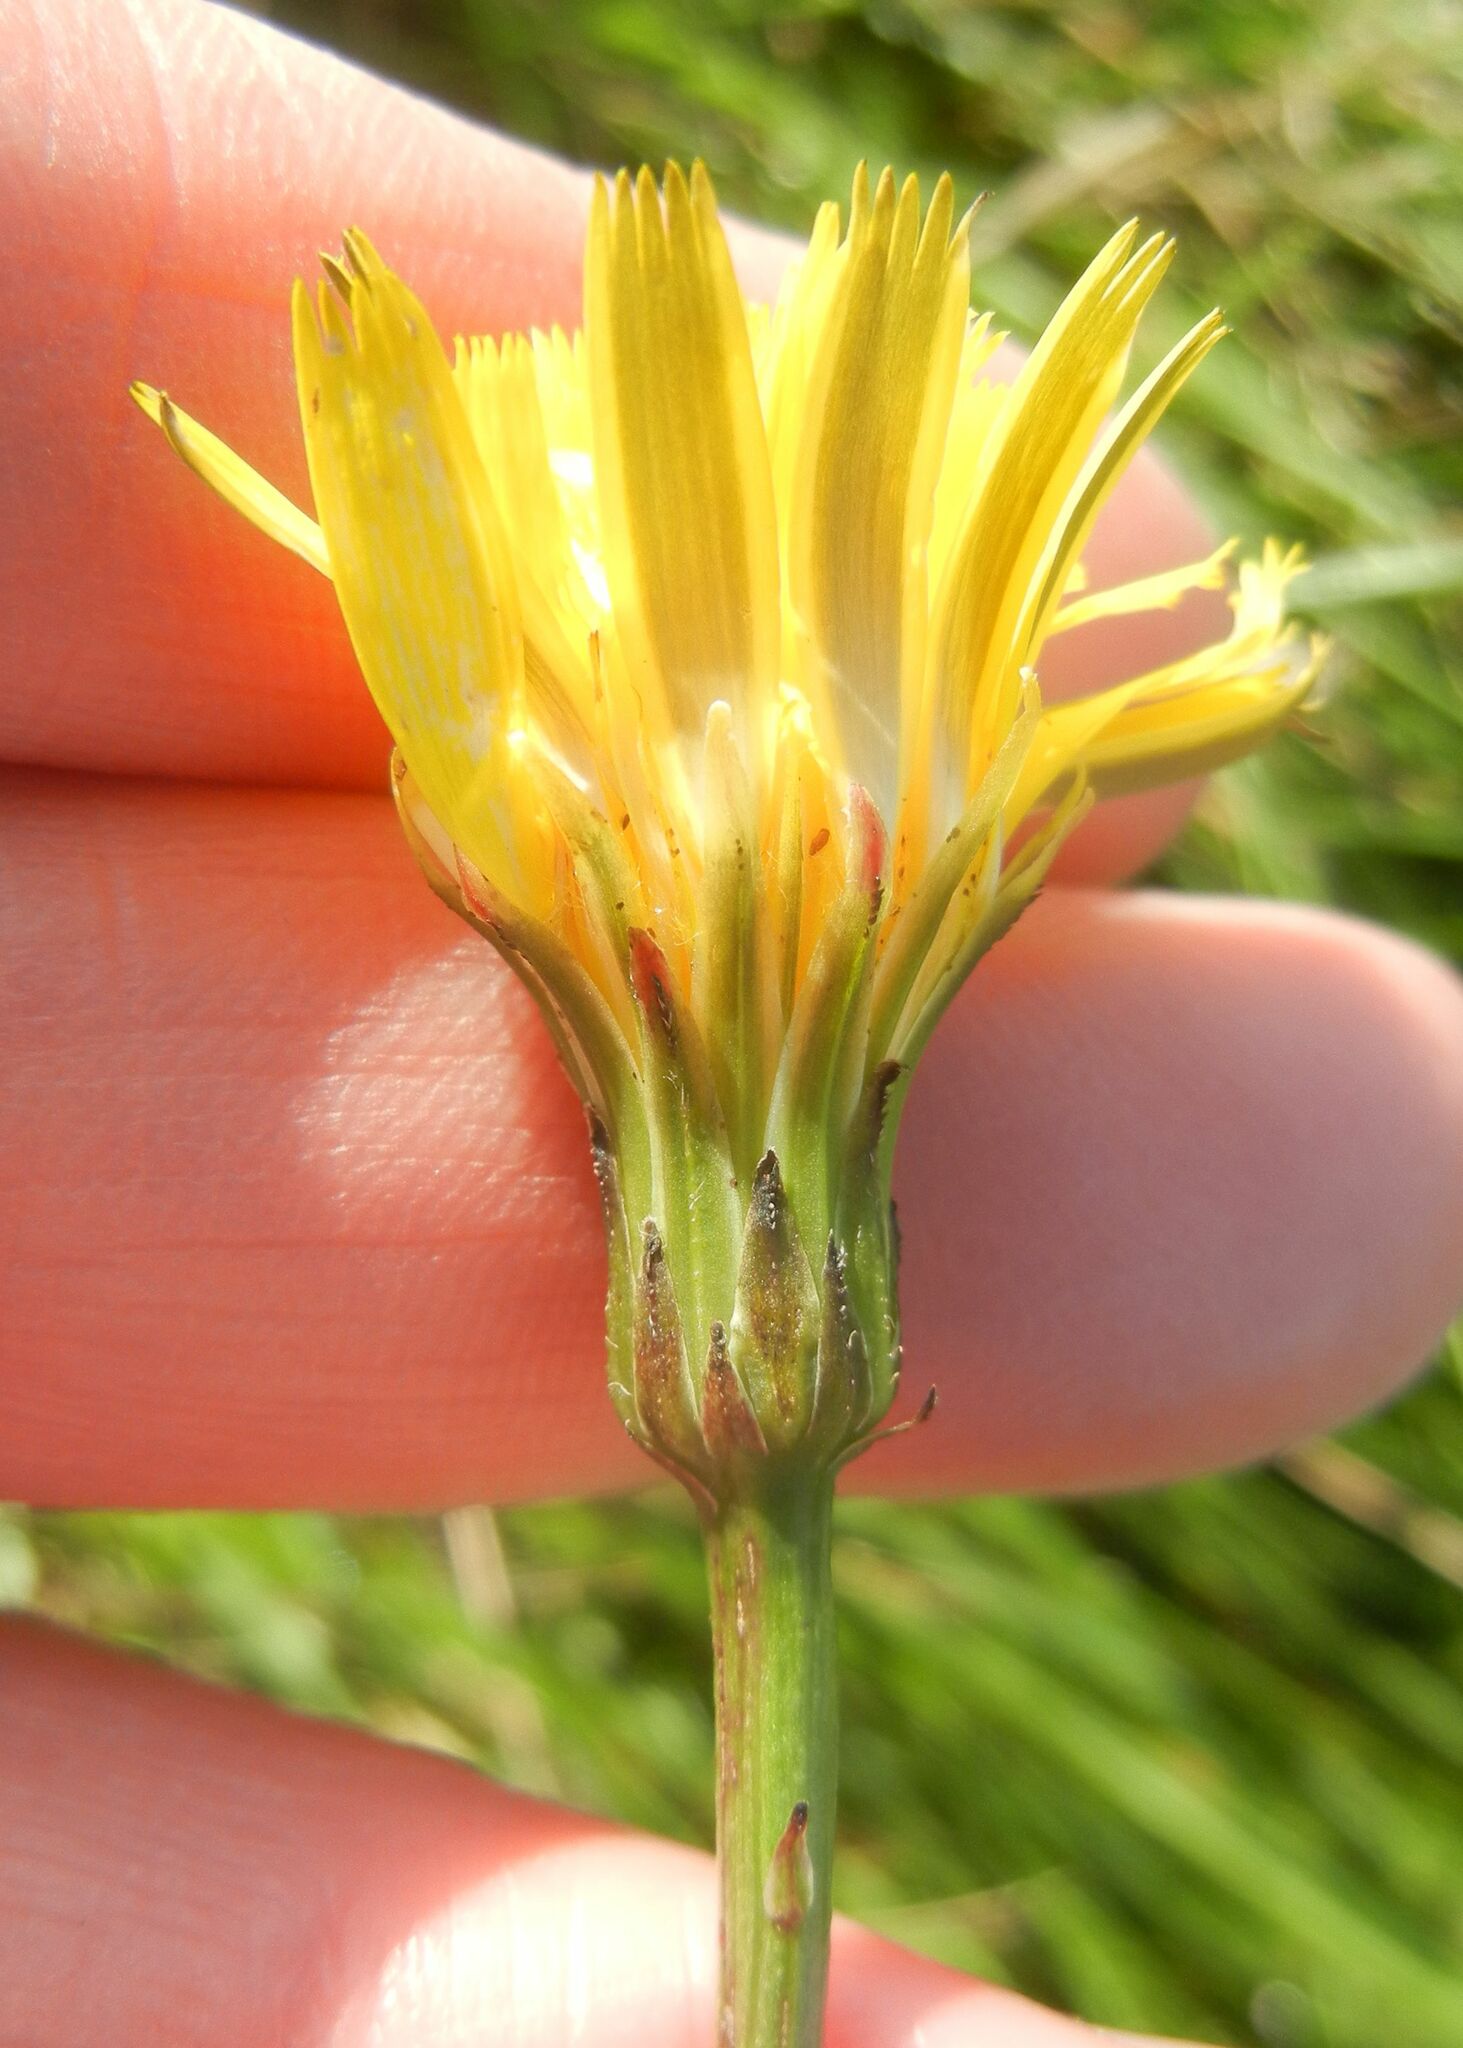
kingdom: Plantae
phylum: Tracheophyta
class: Magnoliopsida
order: Asterales
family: Asteraceae
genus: Hypochaeris
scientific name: Hypochaeris radicata
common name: Flatweed
